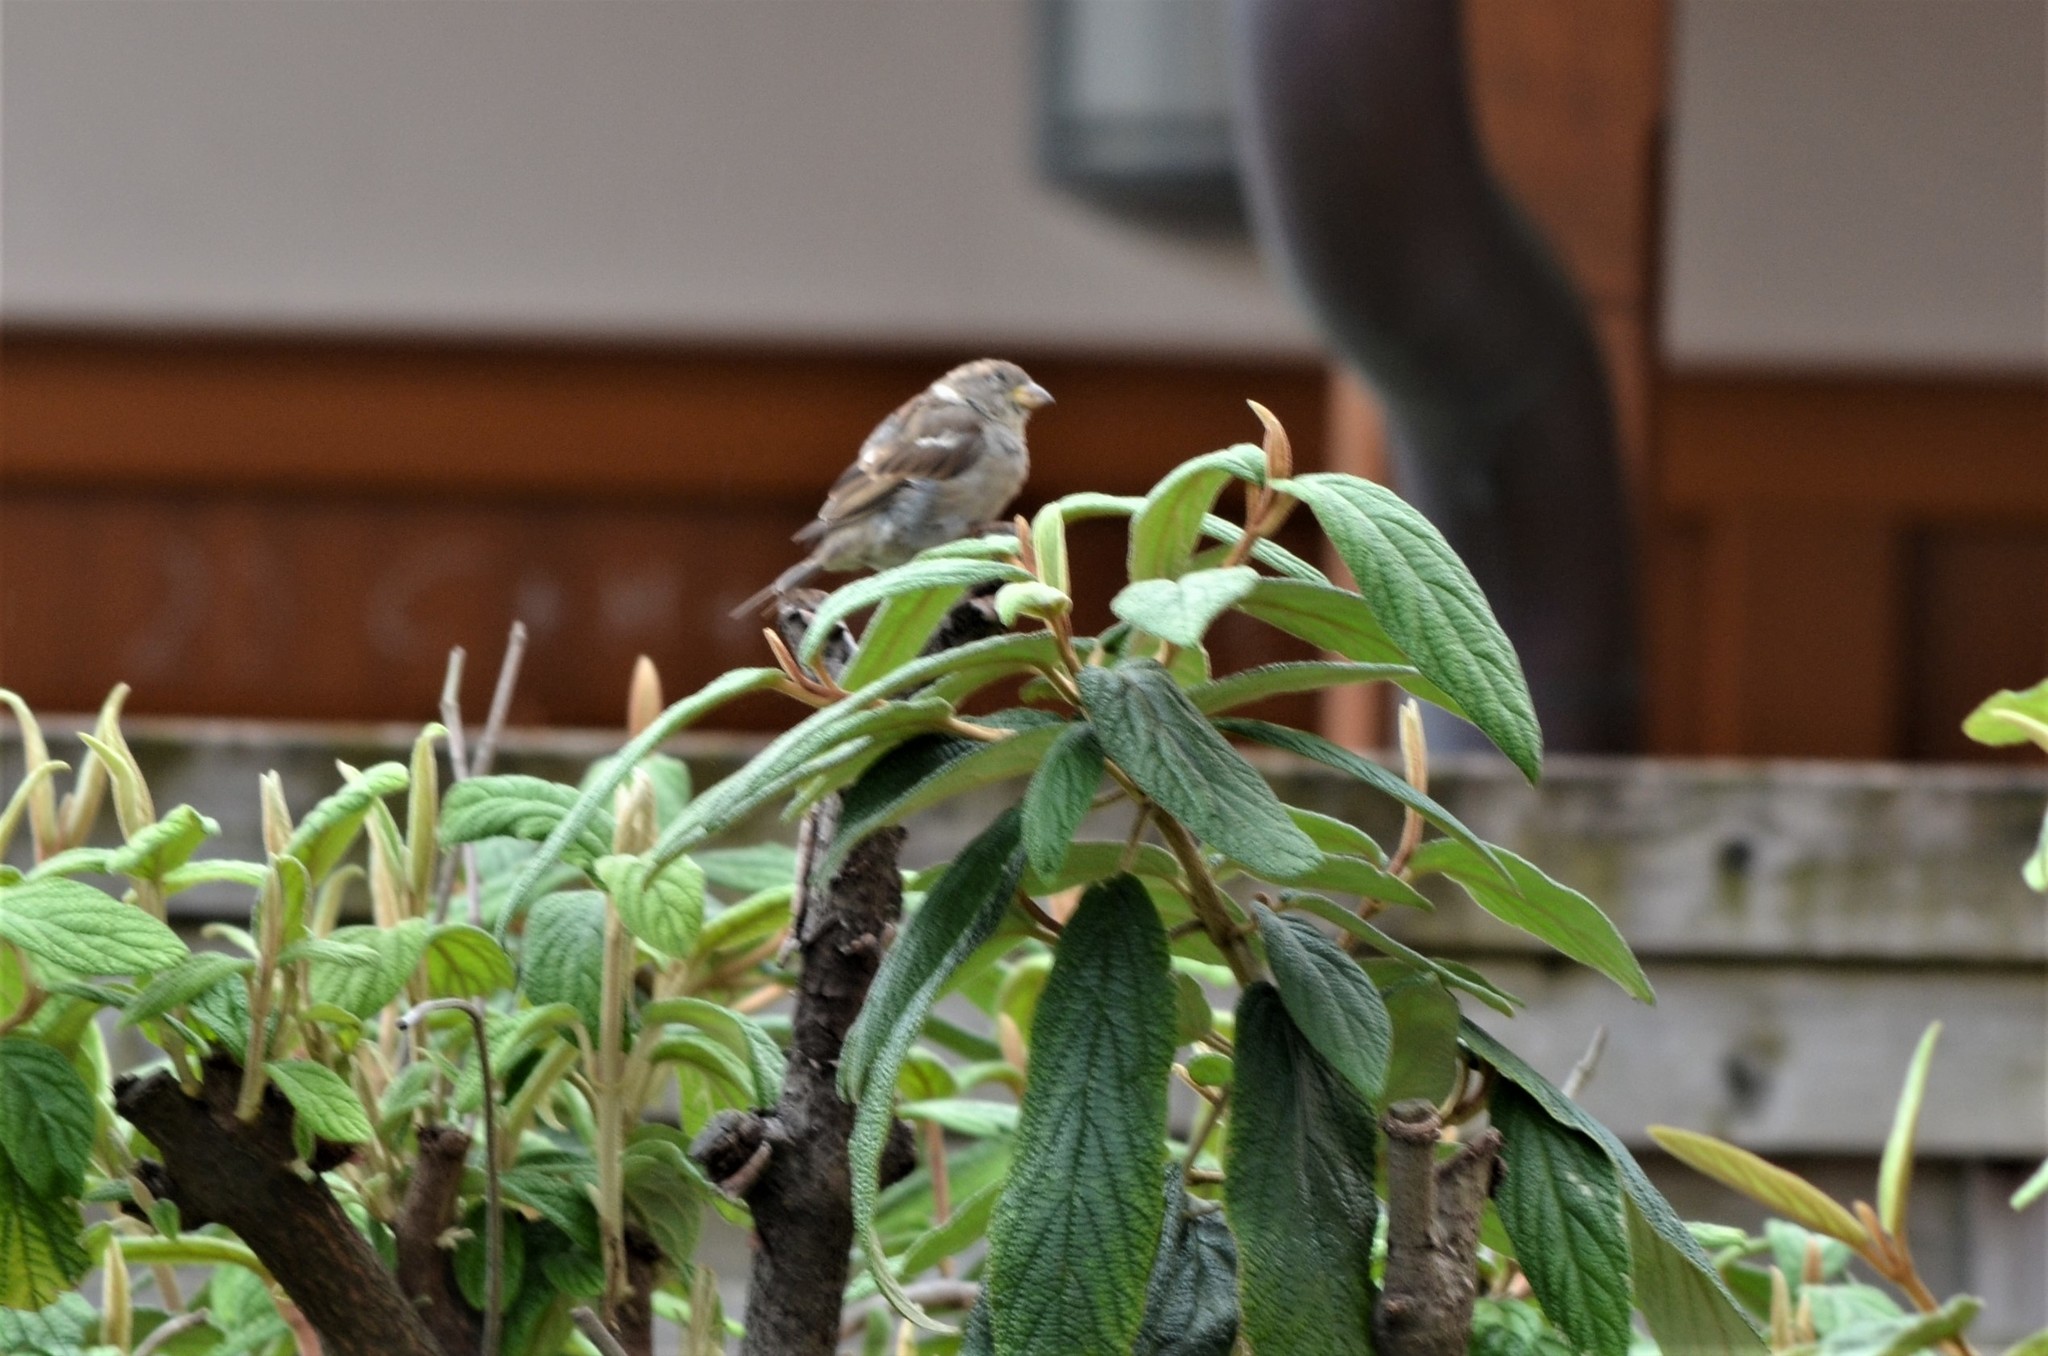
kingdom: Animalia
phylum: Chordata
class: Aves
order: Passeriformes
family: Passeridae
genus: Passer
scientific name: Passer domesticus
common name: House sparrow
